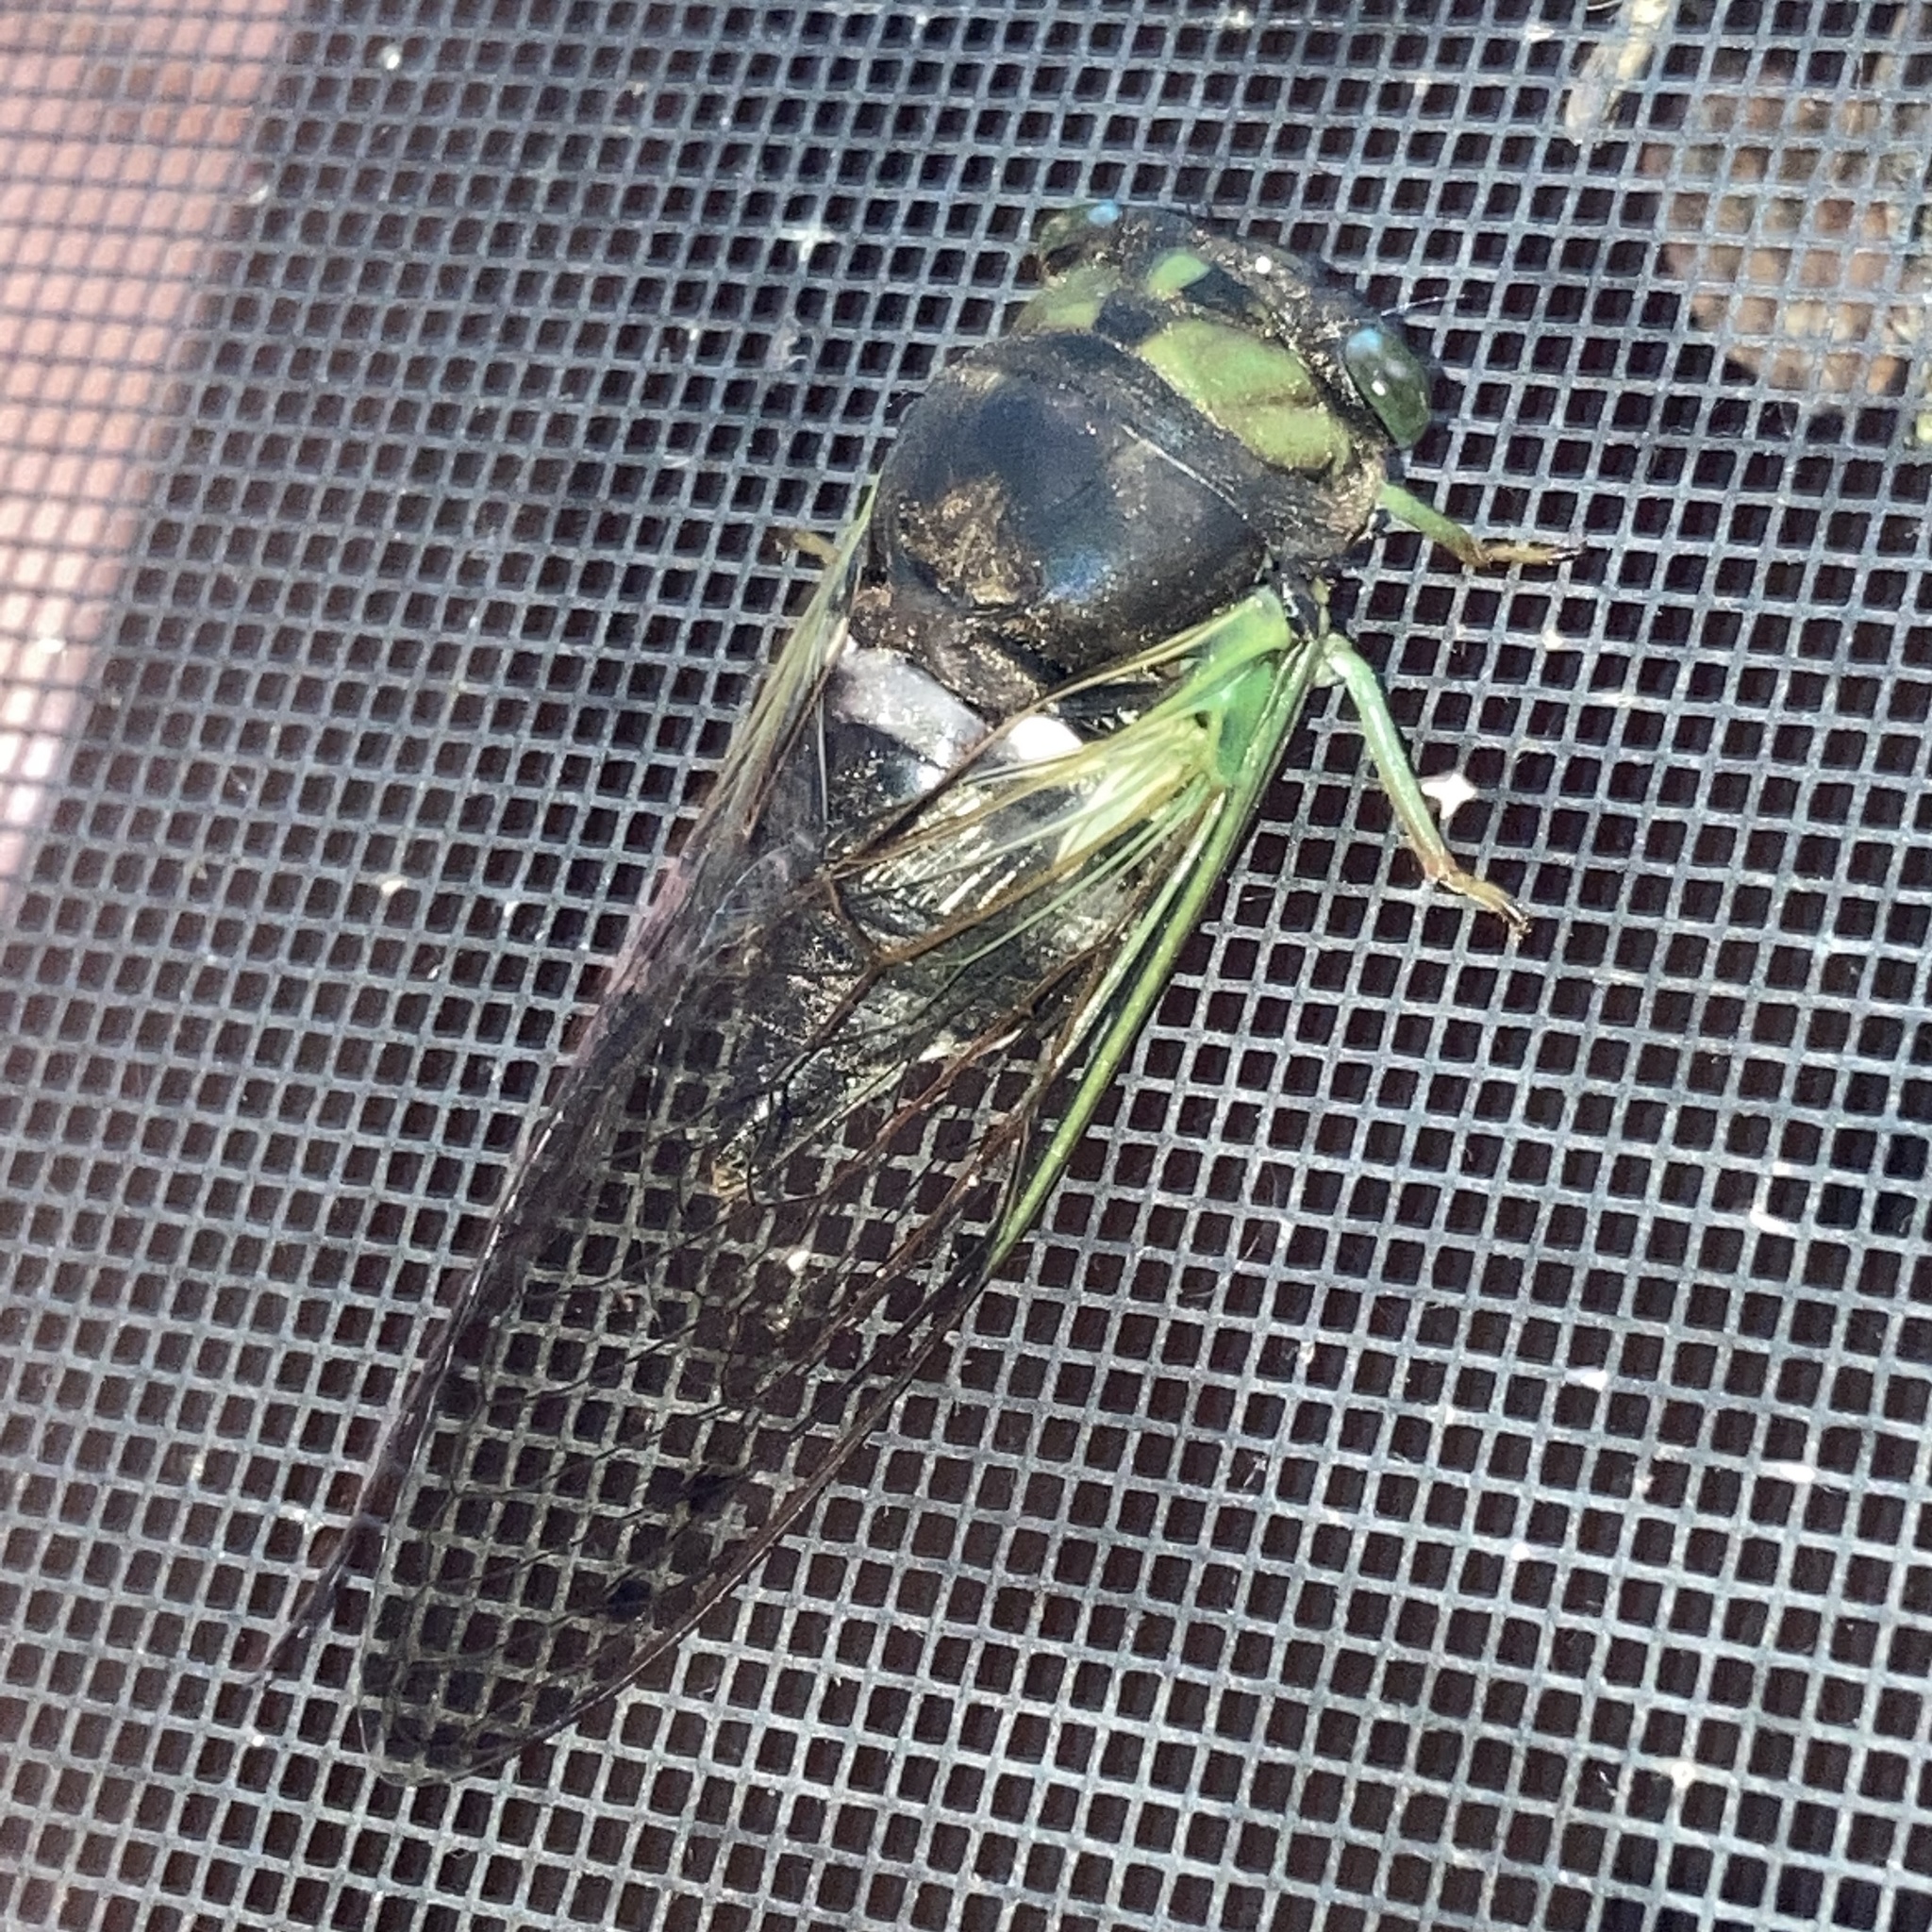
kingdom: Animalia
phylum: Arthropoda
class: Insecta
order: Hemiptera
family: Cicadidae
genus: Neotibicen
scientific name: Neotibicen tibicen
